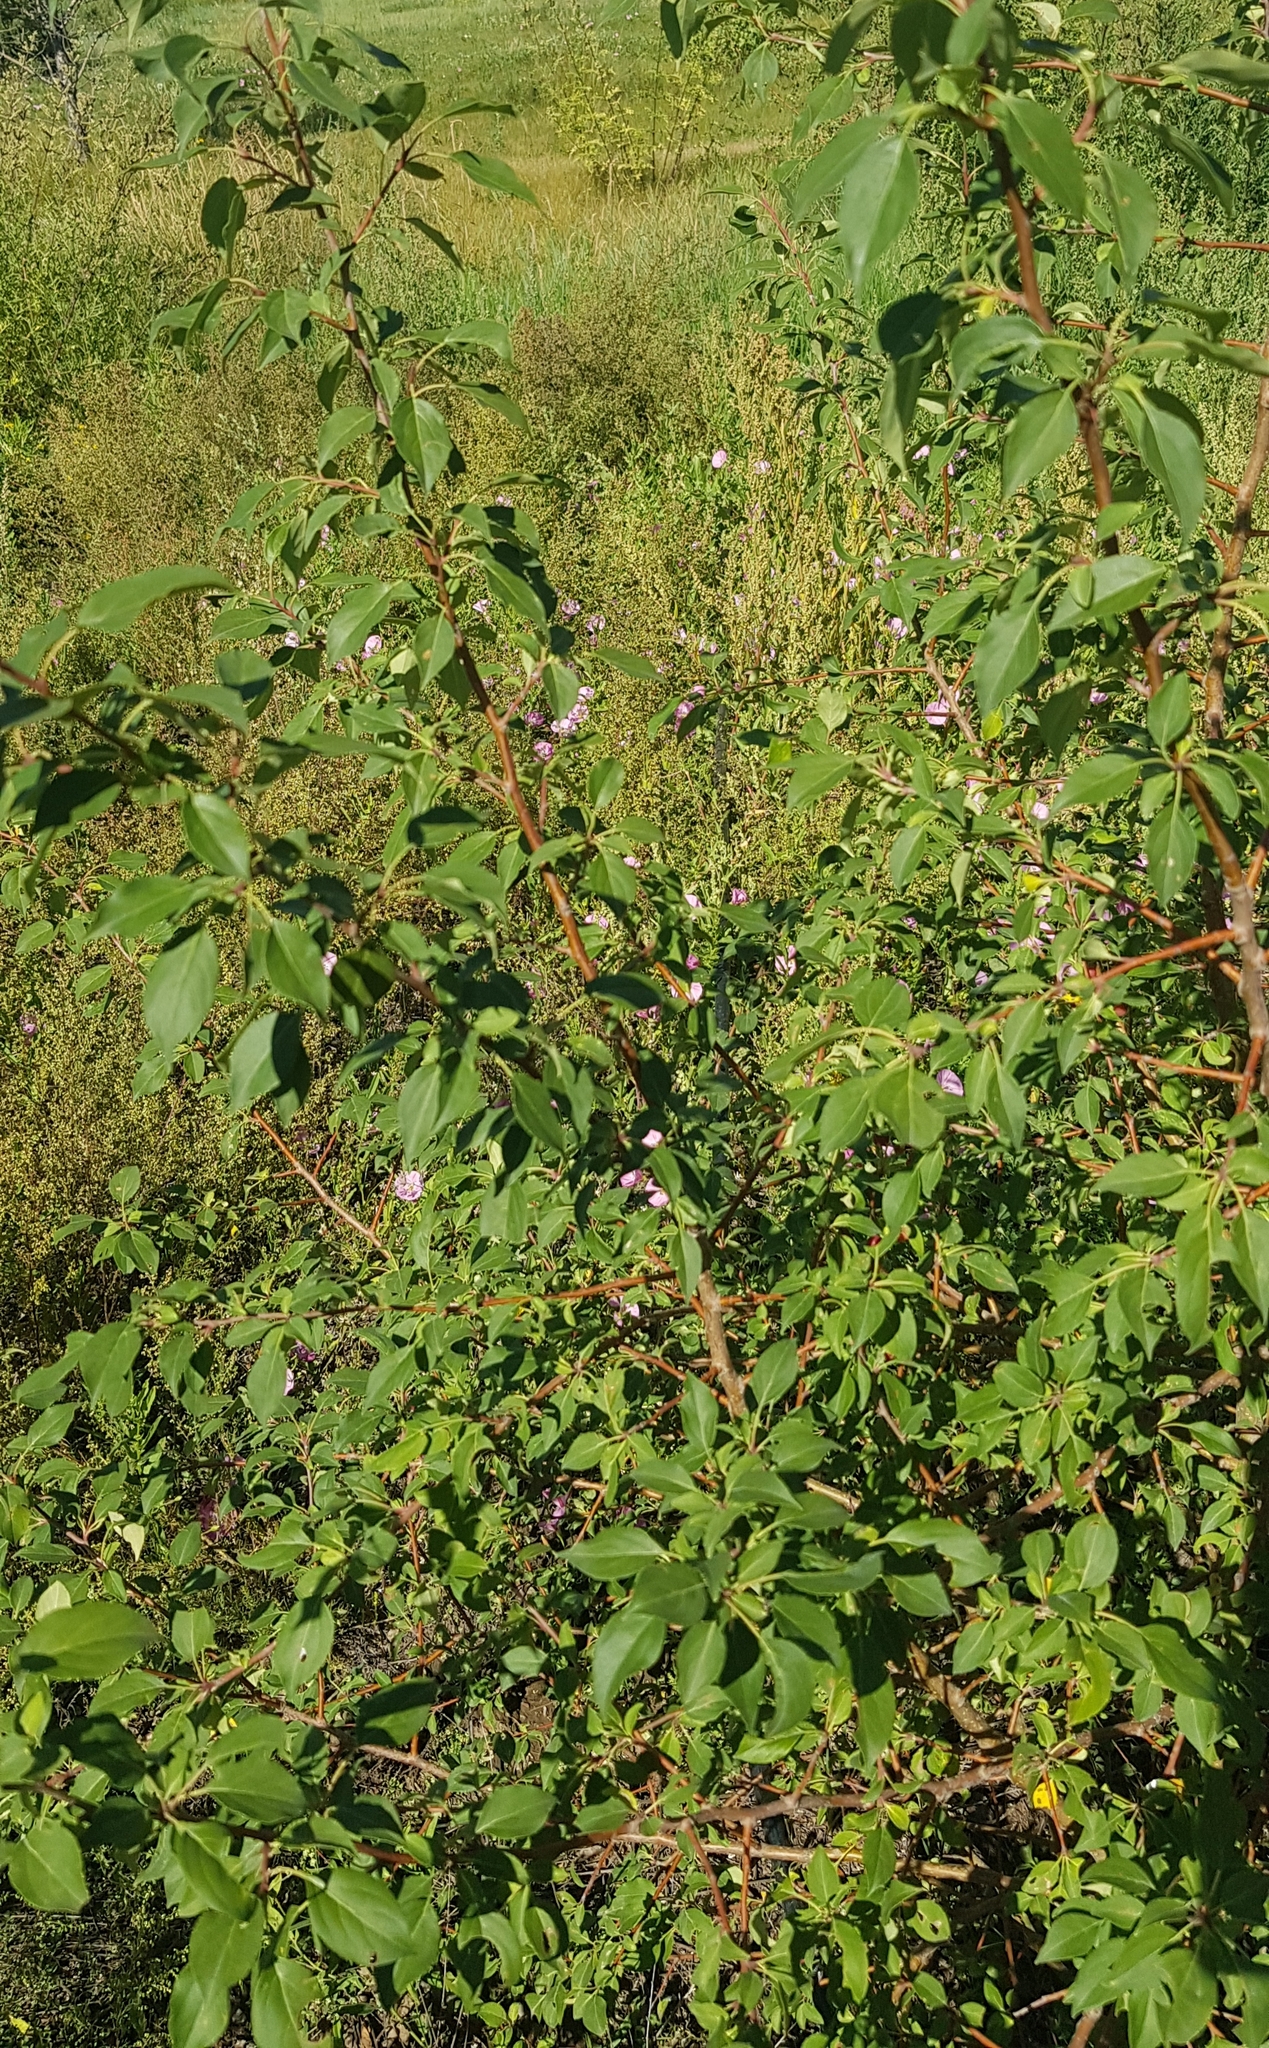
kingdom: Plantae
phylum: Tracheophyta
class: Magnoliopsida
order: Rosales
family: Rosaceae
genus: Malus
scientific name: Malus baccata
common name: Siberian crab
